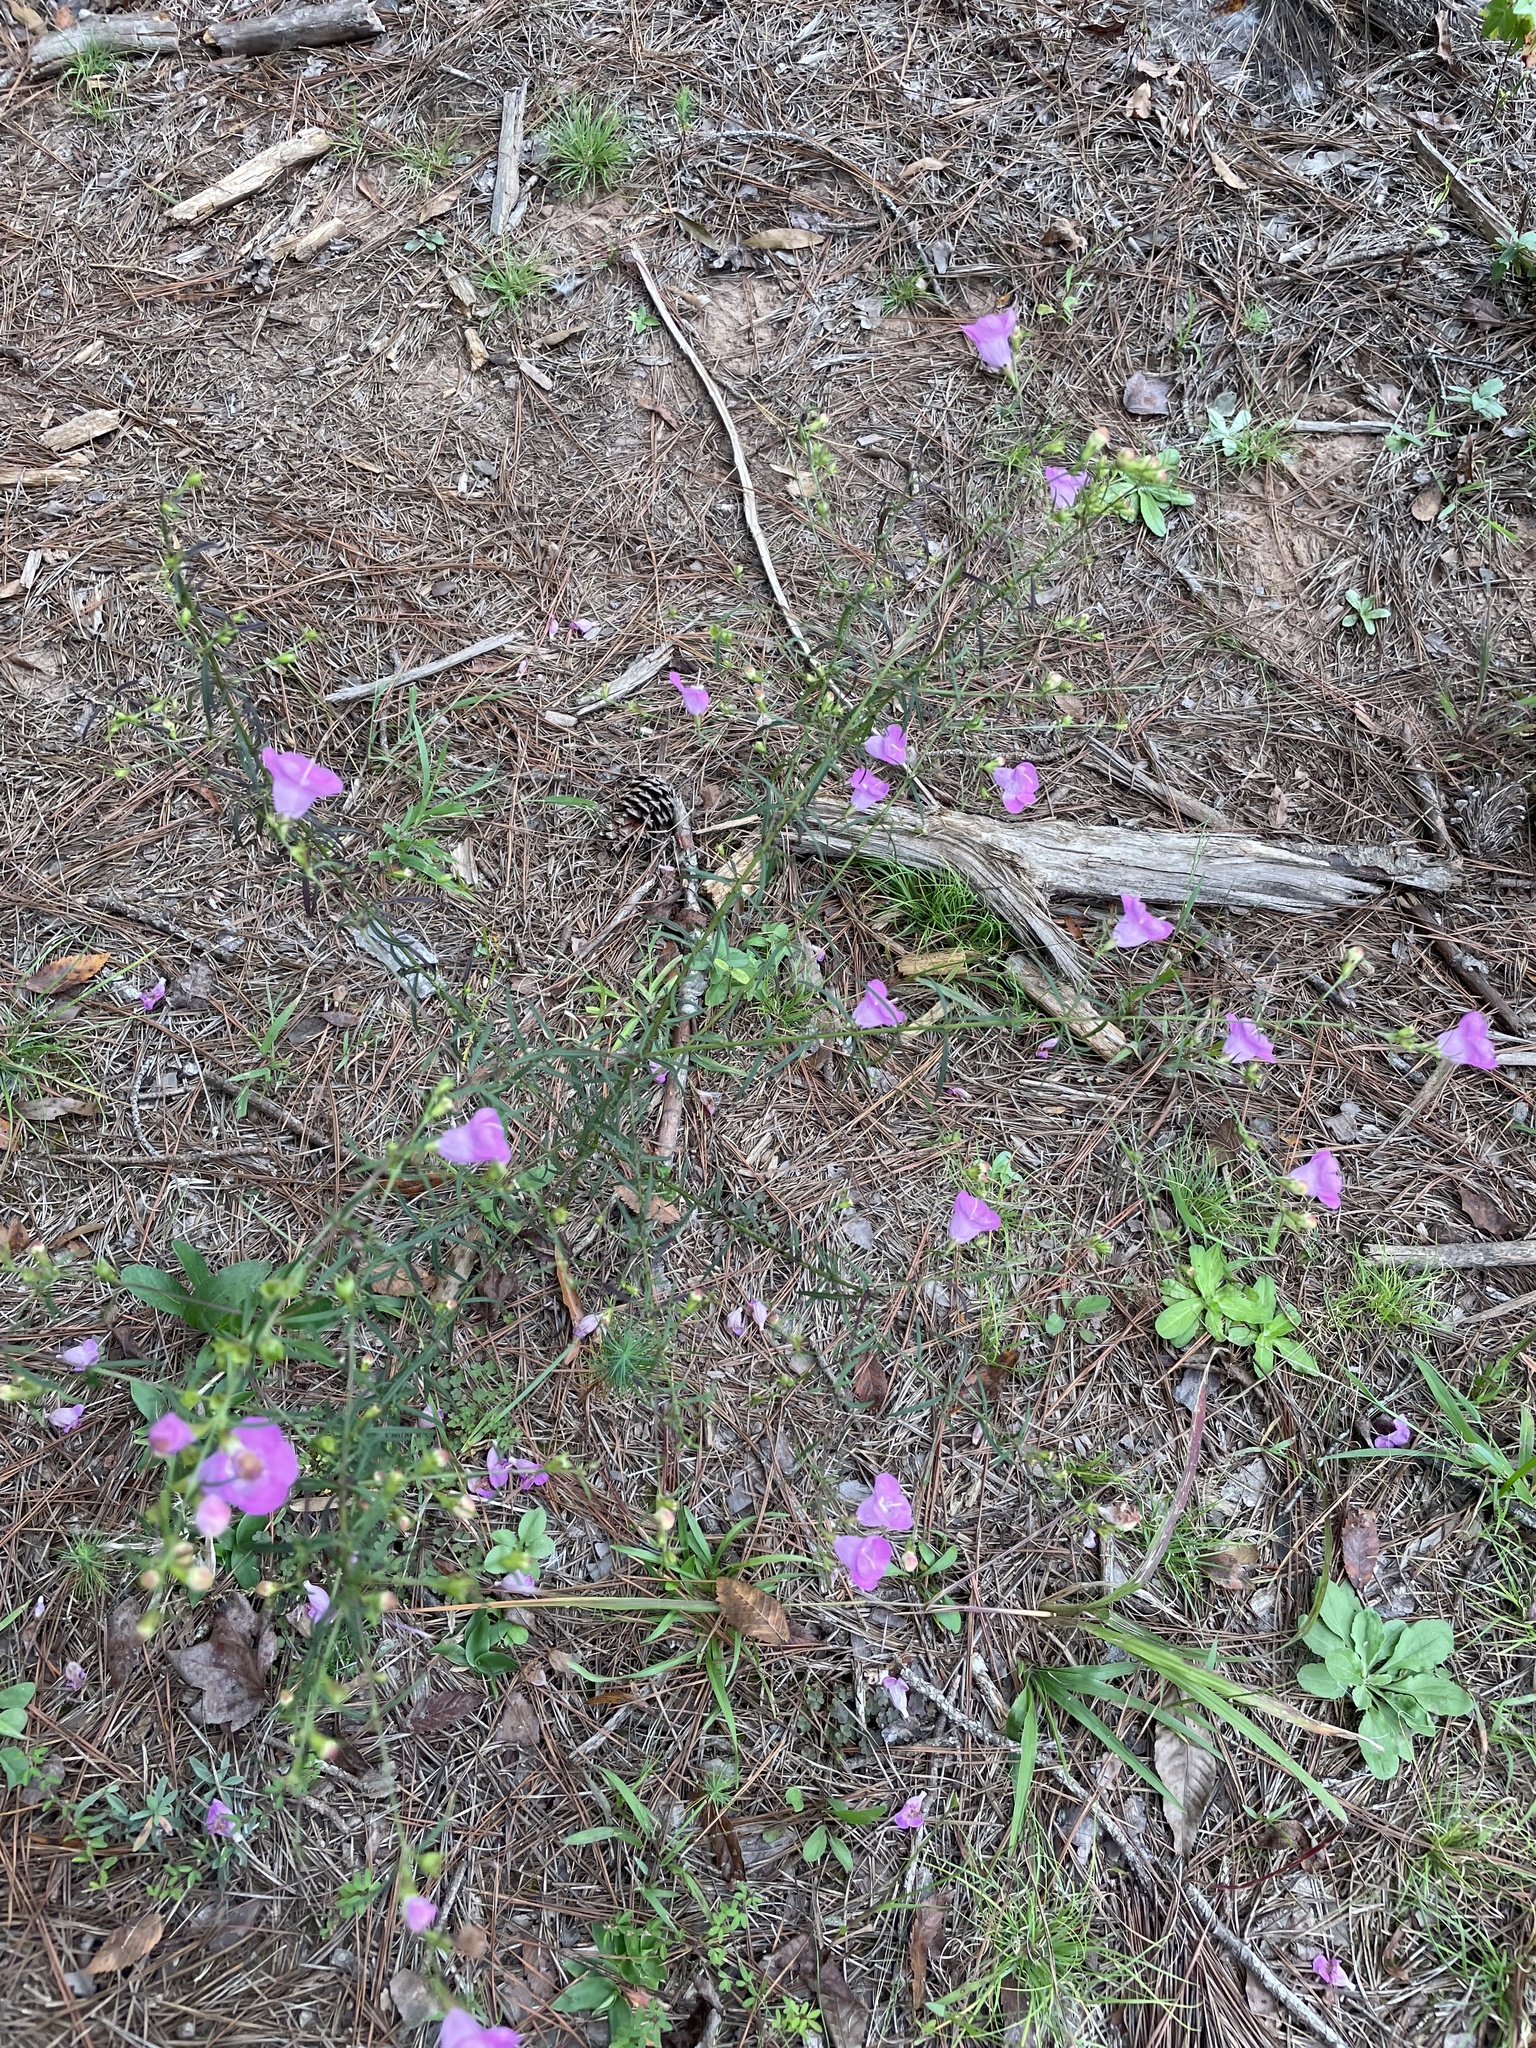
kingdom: Plantae
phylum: Tracheophyta
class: Magnoliopsida
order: Lamiales
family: Orobanchaceae
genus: Agalinis
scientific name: Agalinis purpurea
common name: Purple false foxglove
